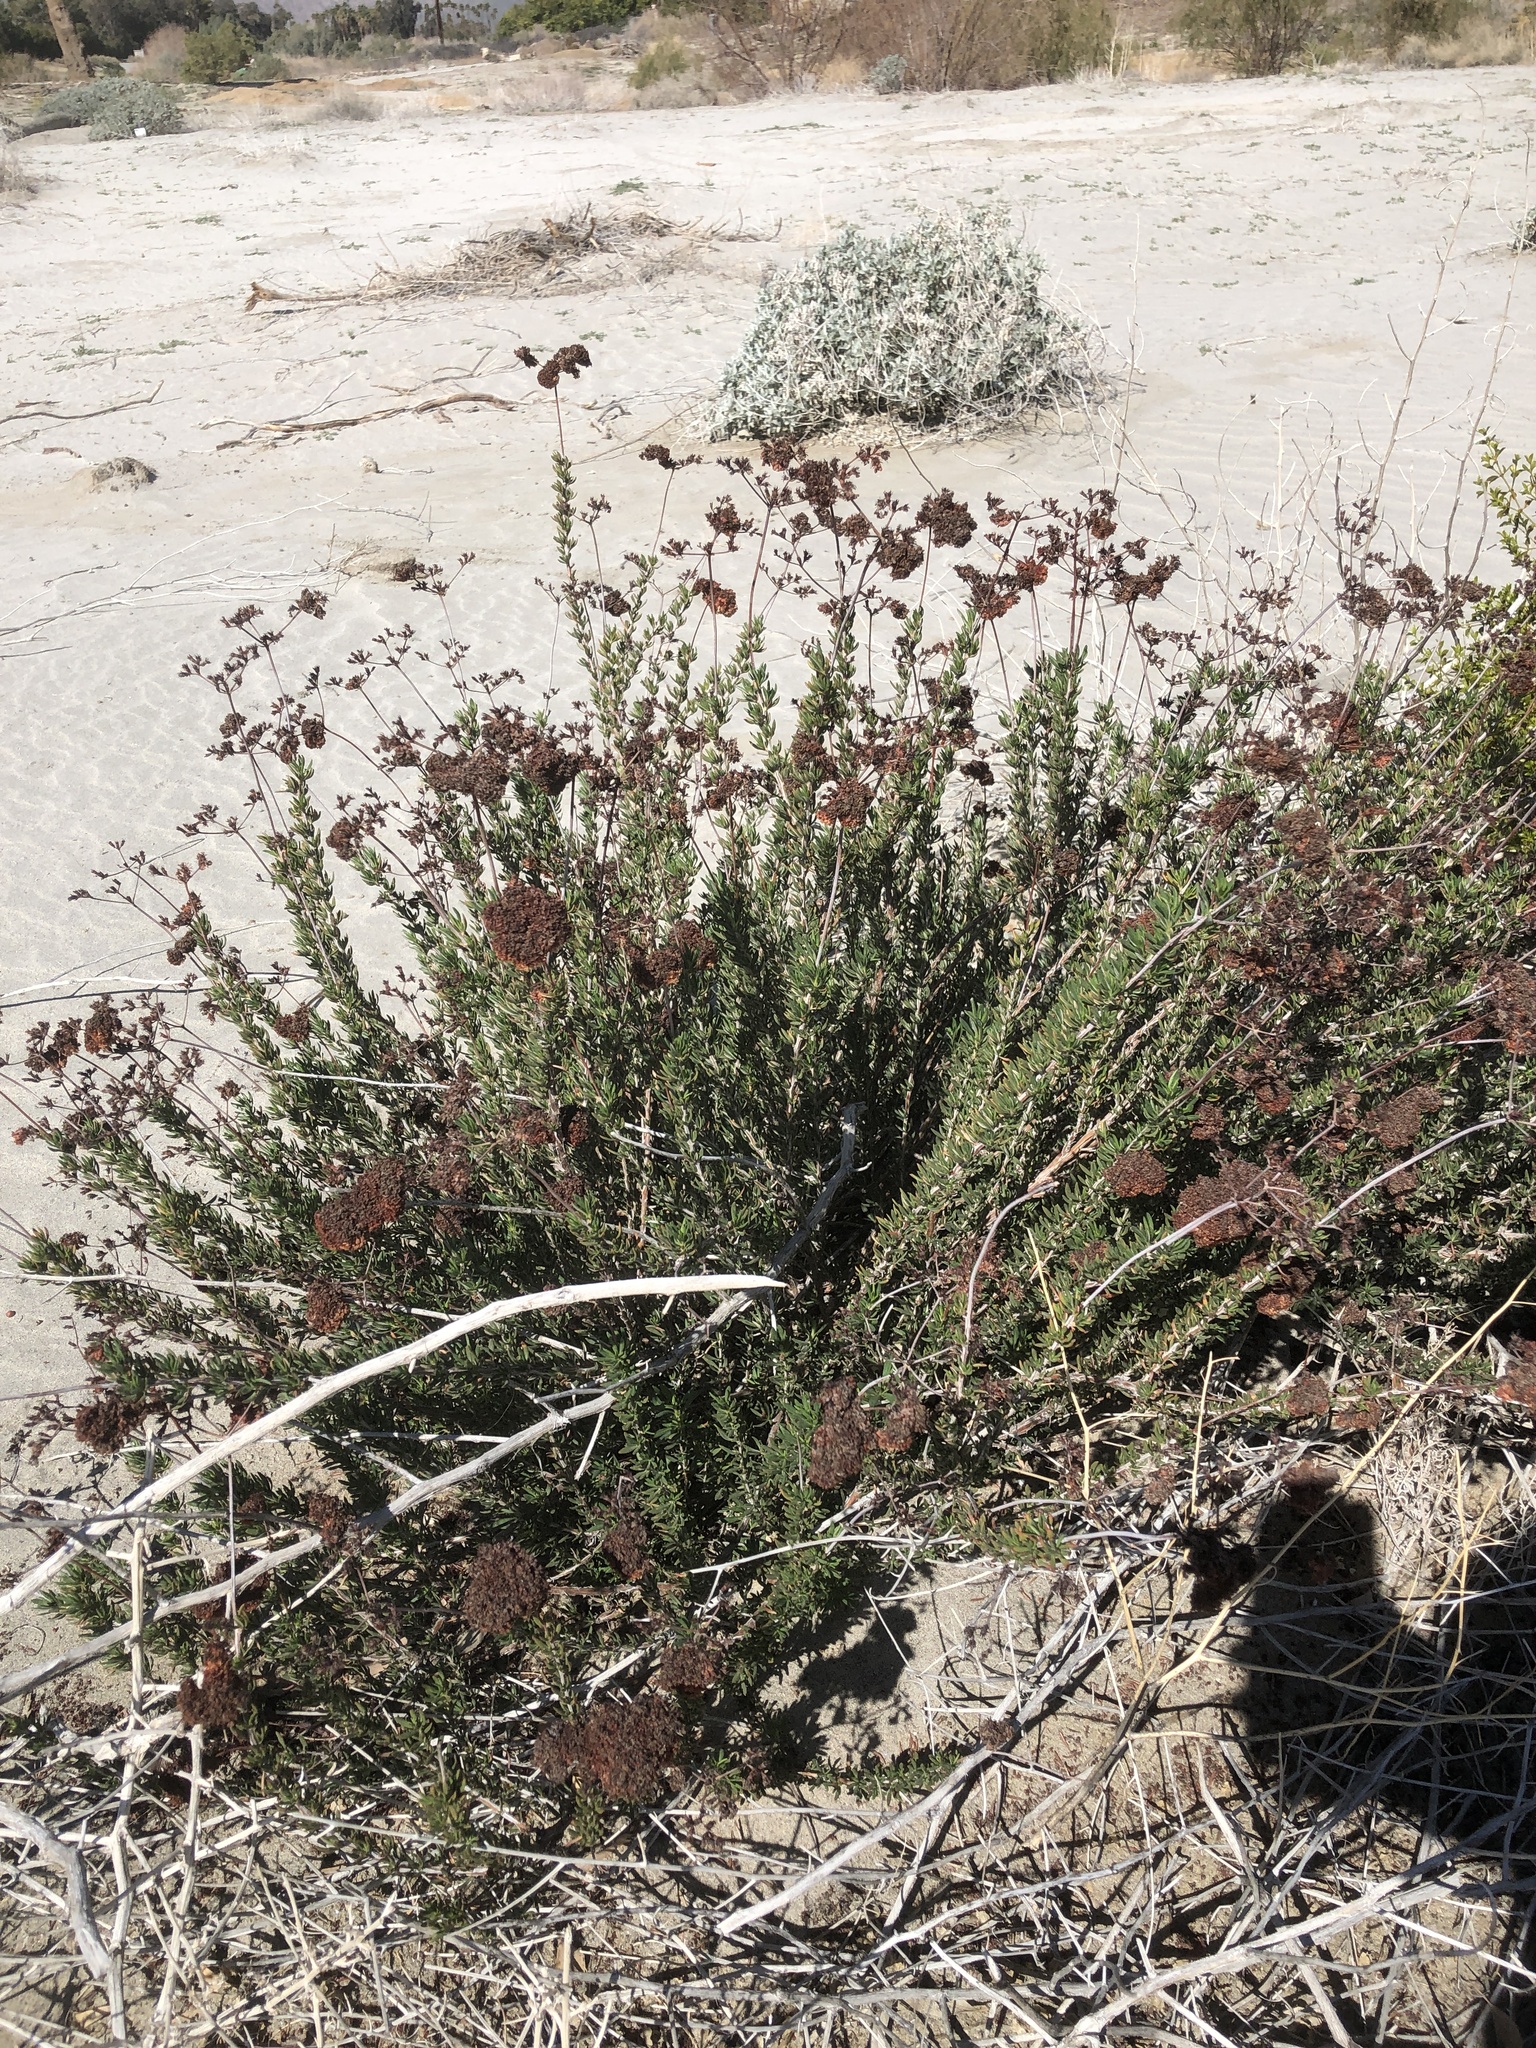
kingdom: Plantae
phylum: Tracheophyta
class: Magnoliopsida
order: Caryophyllales
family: Polygonaceae
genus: Eriogonum
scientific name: Eriogonum fasciculatum
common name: California wild buckwheat
